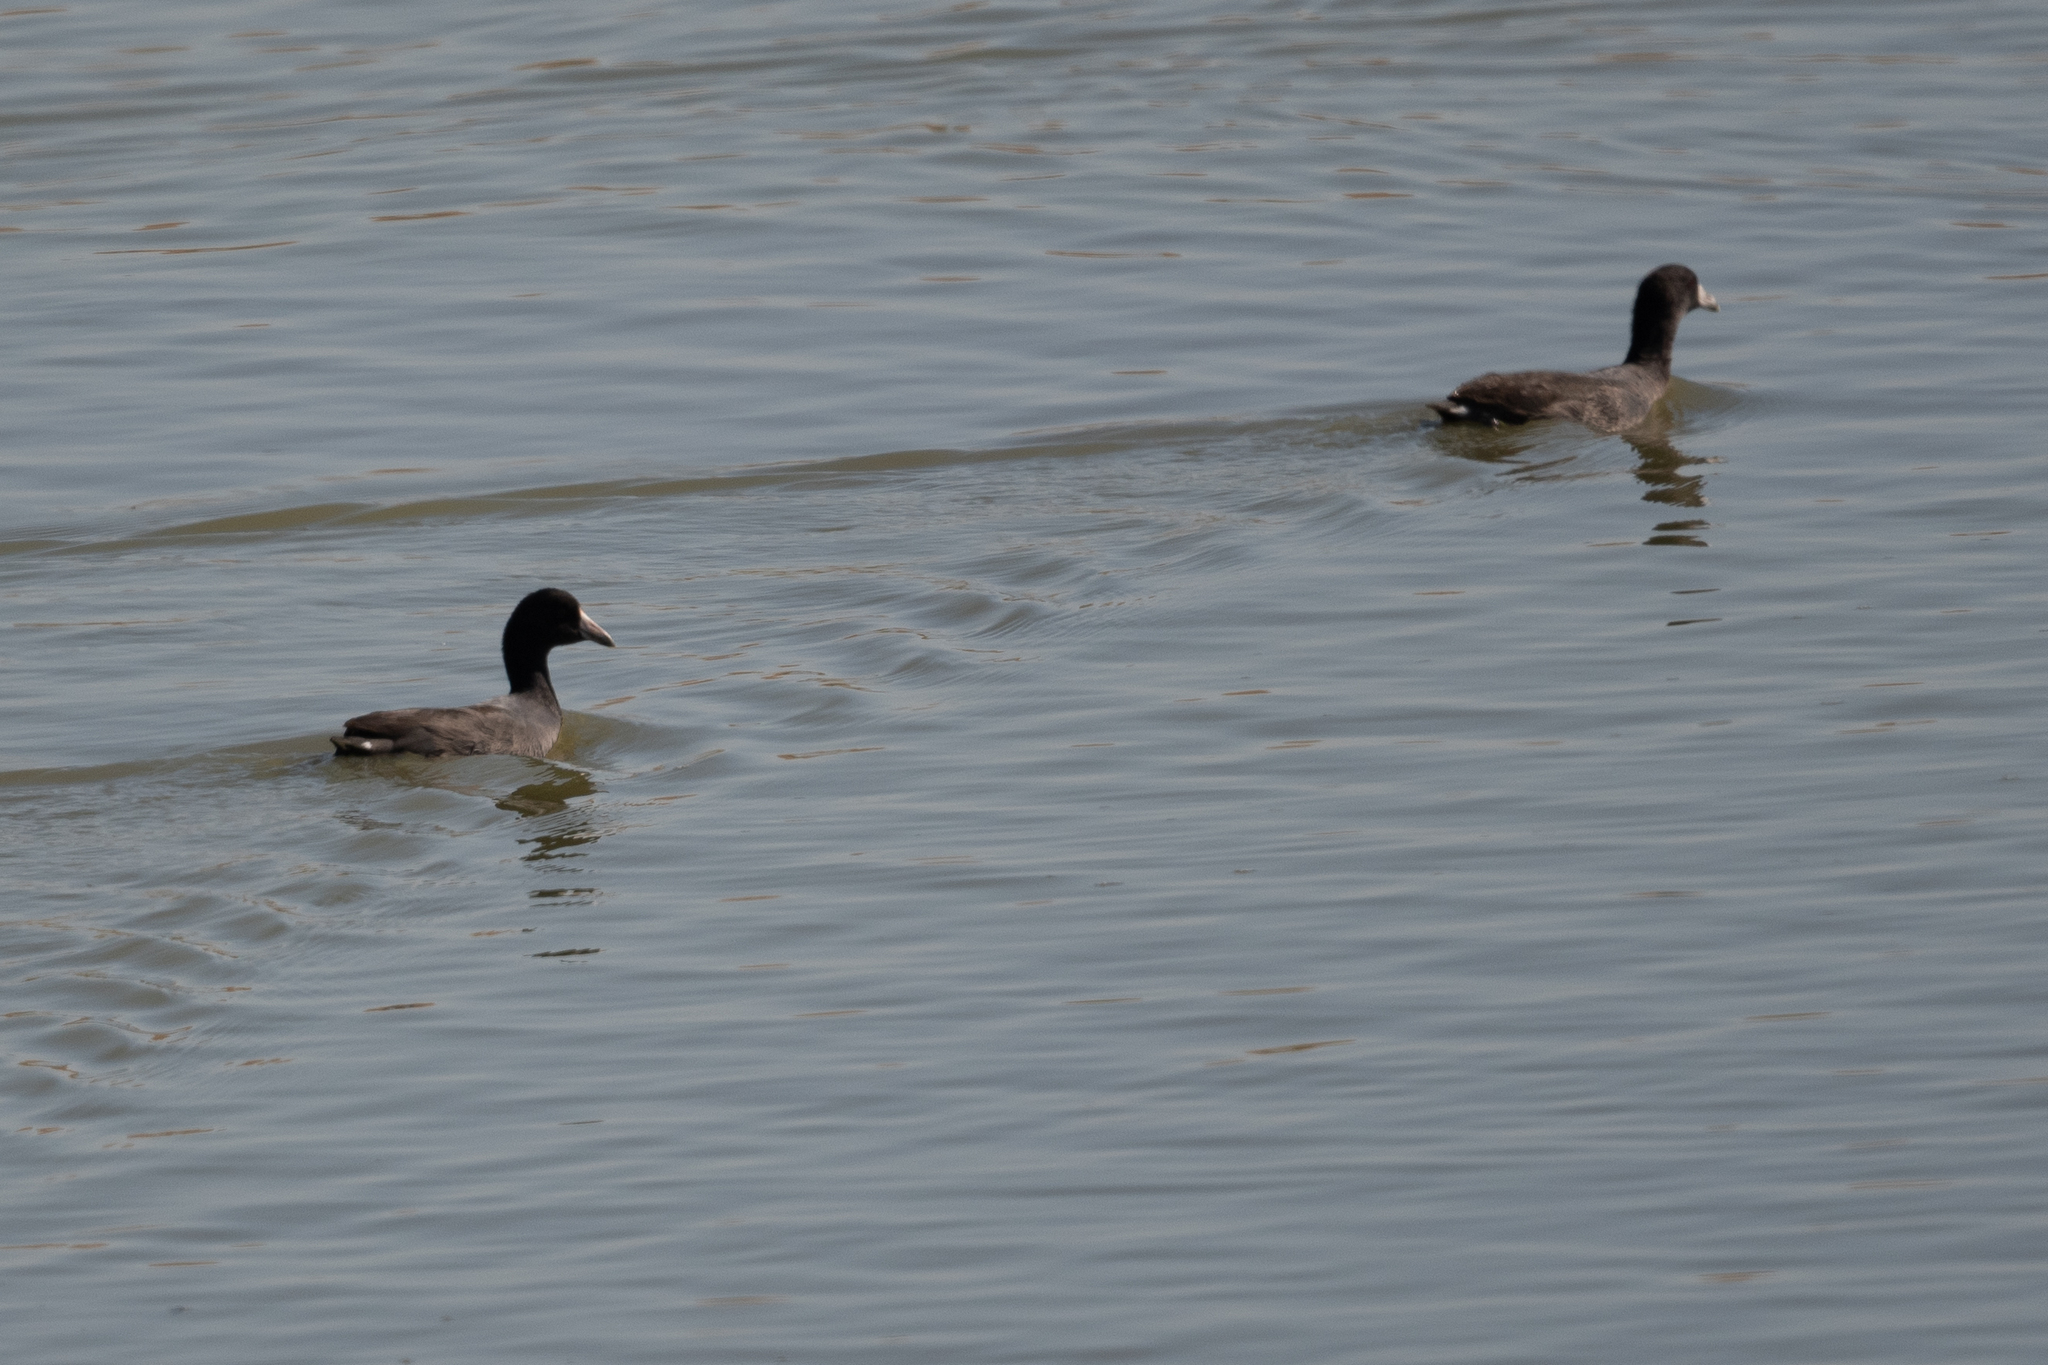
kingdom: Animalia
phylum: Chordata
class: Aves
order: Gruiformes
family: Rallidae
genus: Fulica
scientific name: Fulica americana
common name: American coot
